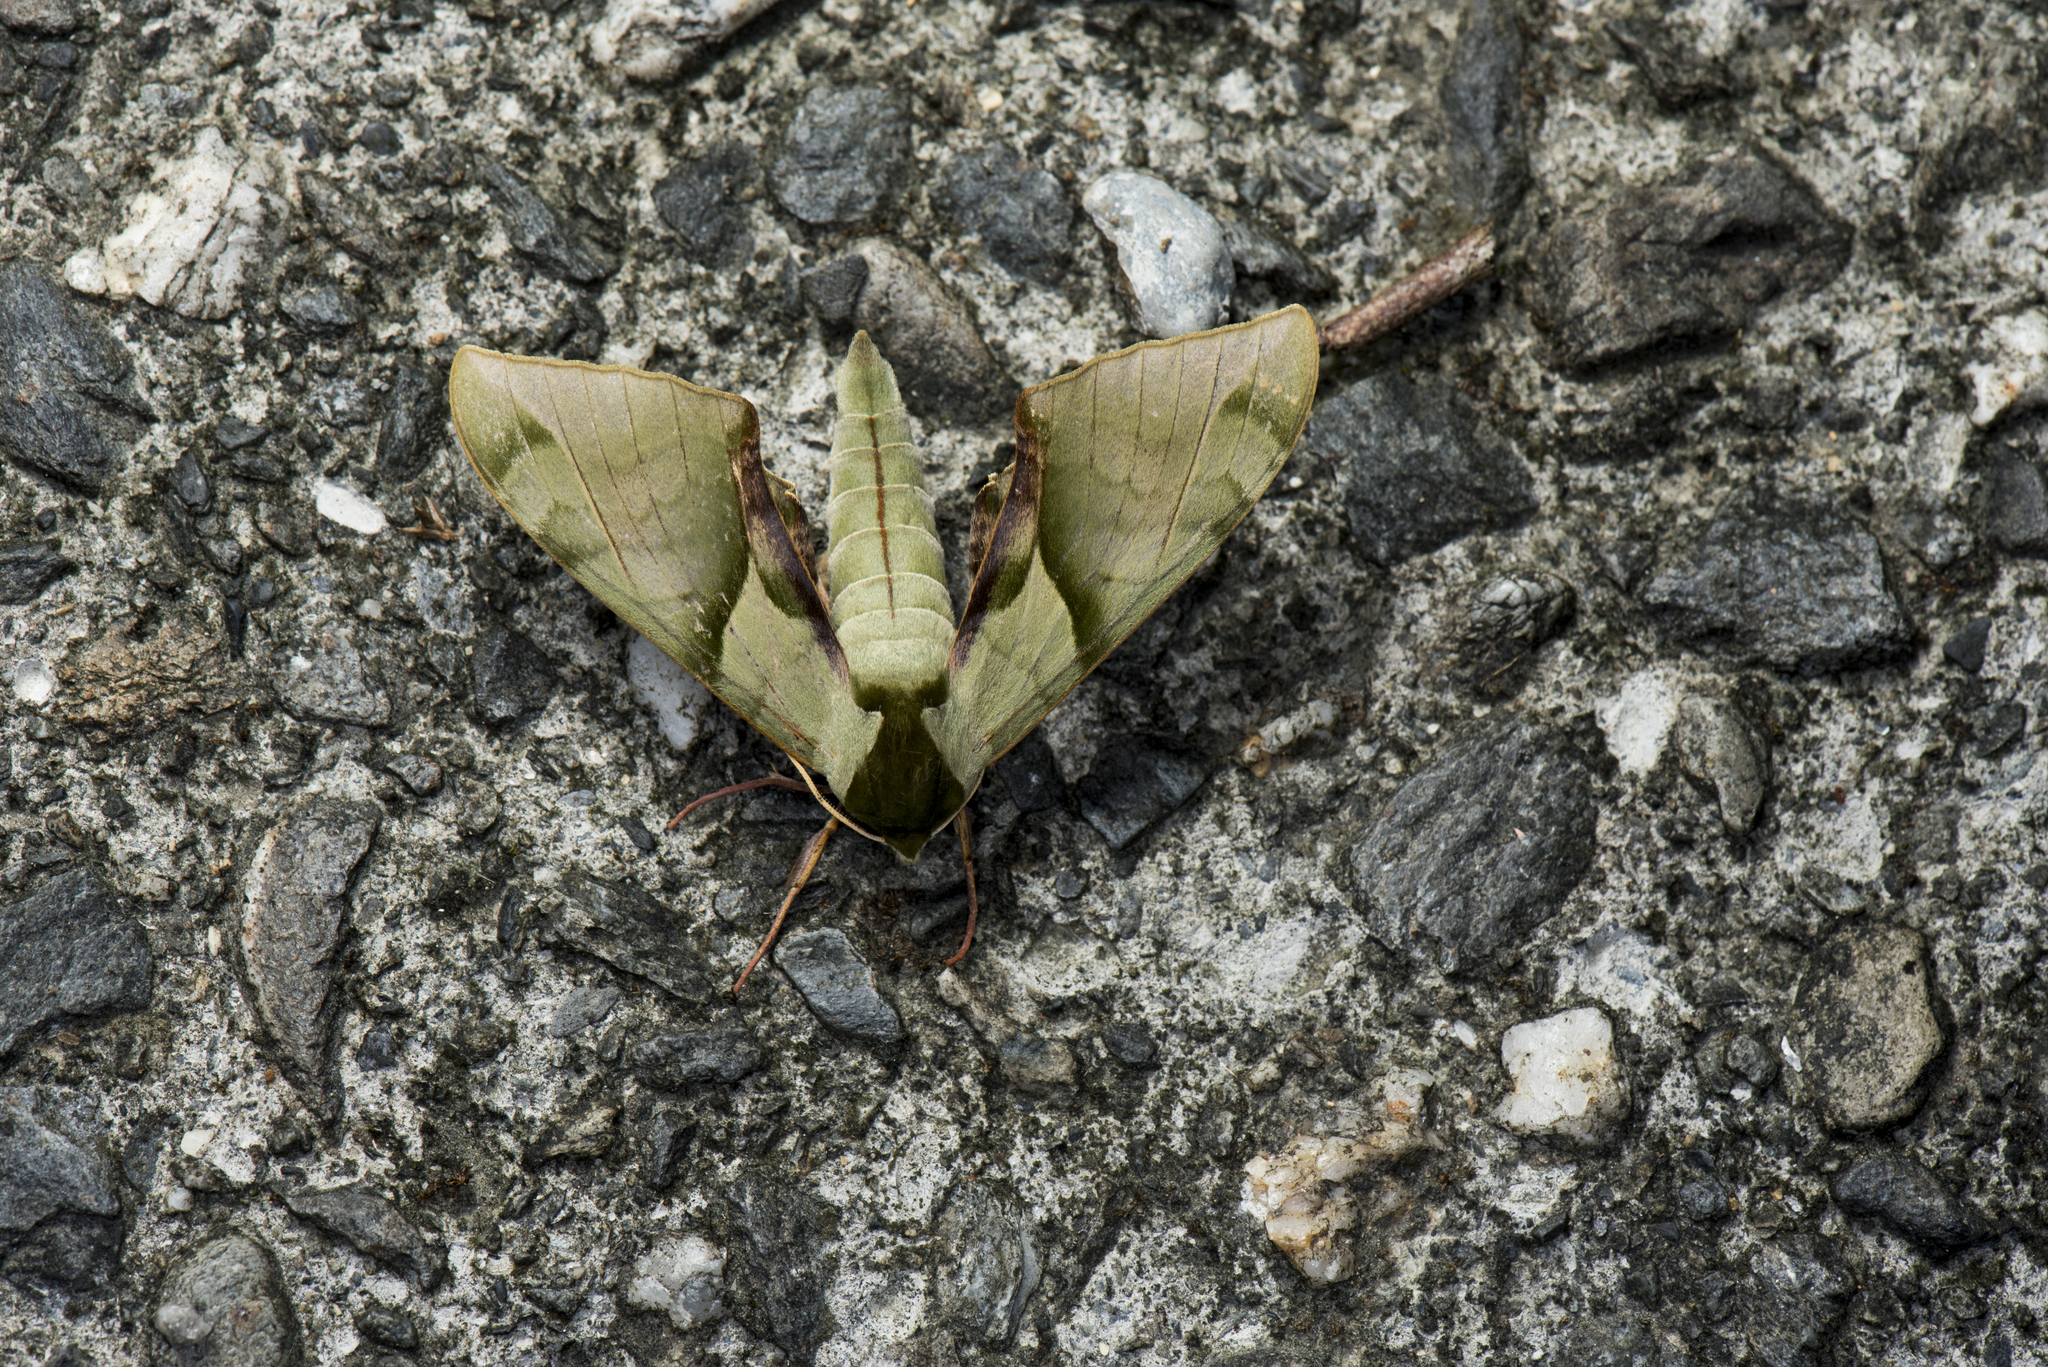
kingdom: Animalia
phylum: Arthropoda
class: Insecta
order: Lepidoptera
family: Sphingidae
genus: Callambulyx
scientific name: Callambulyx tatarinovii
